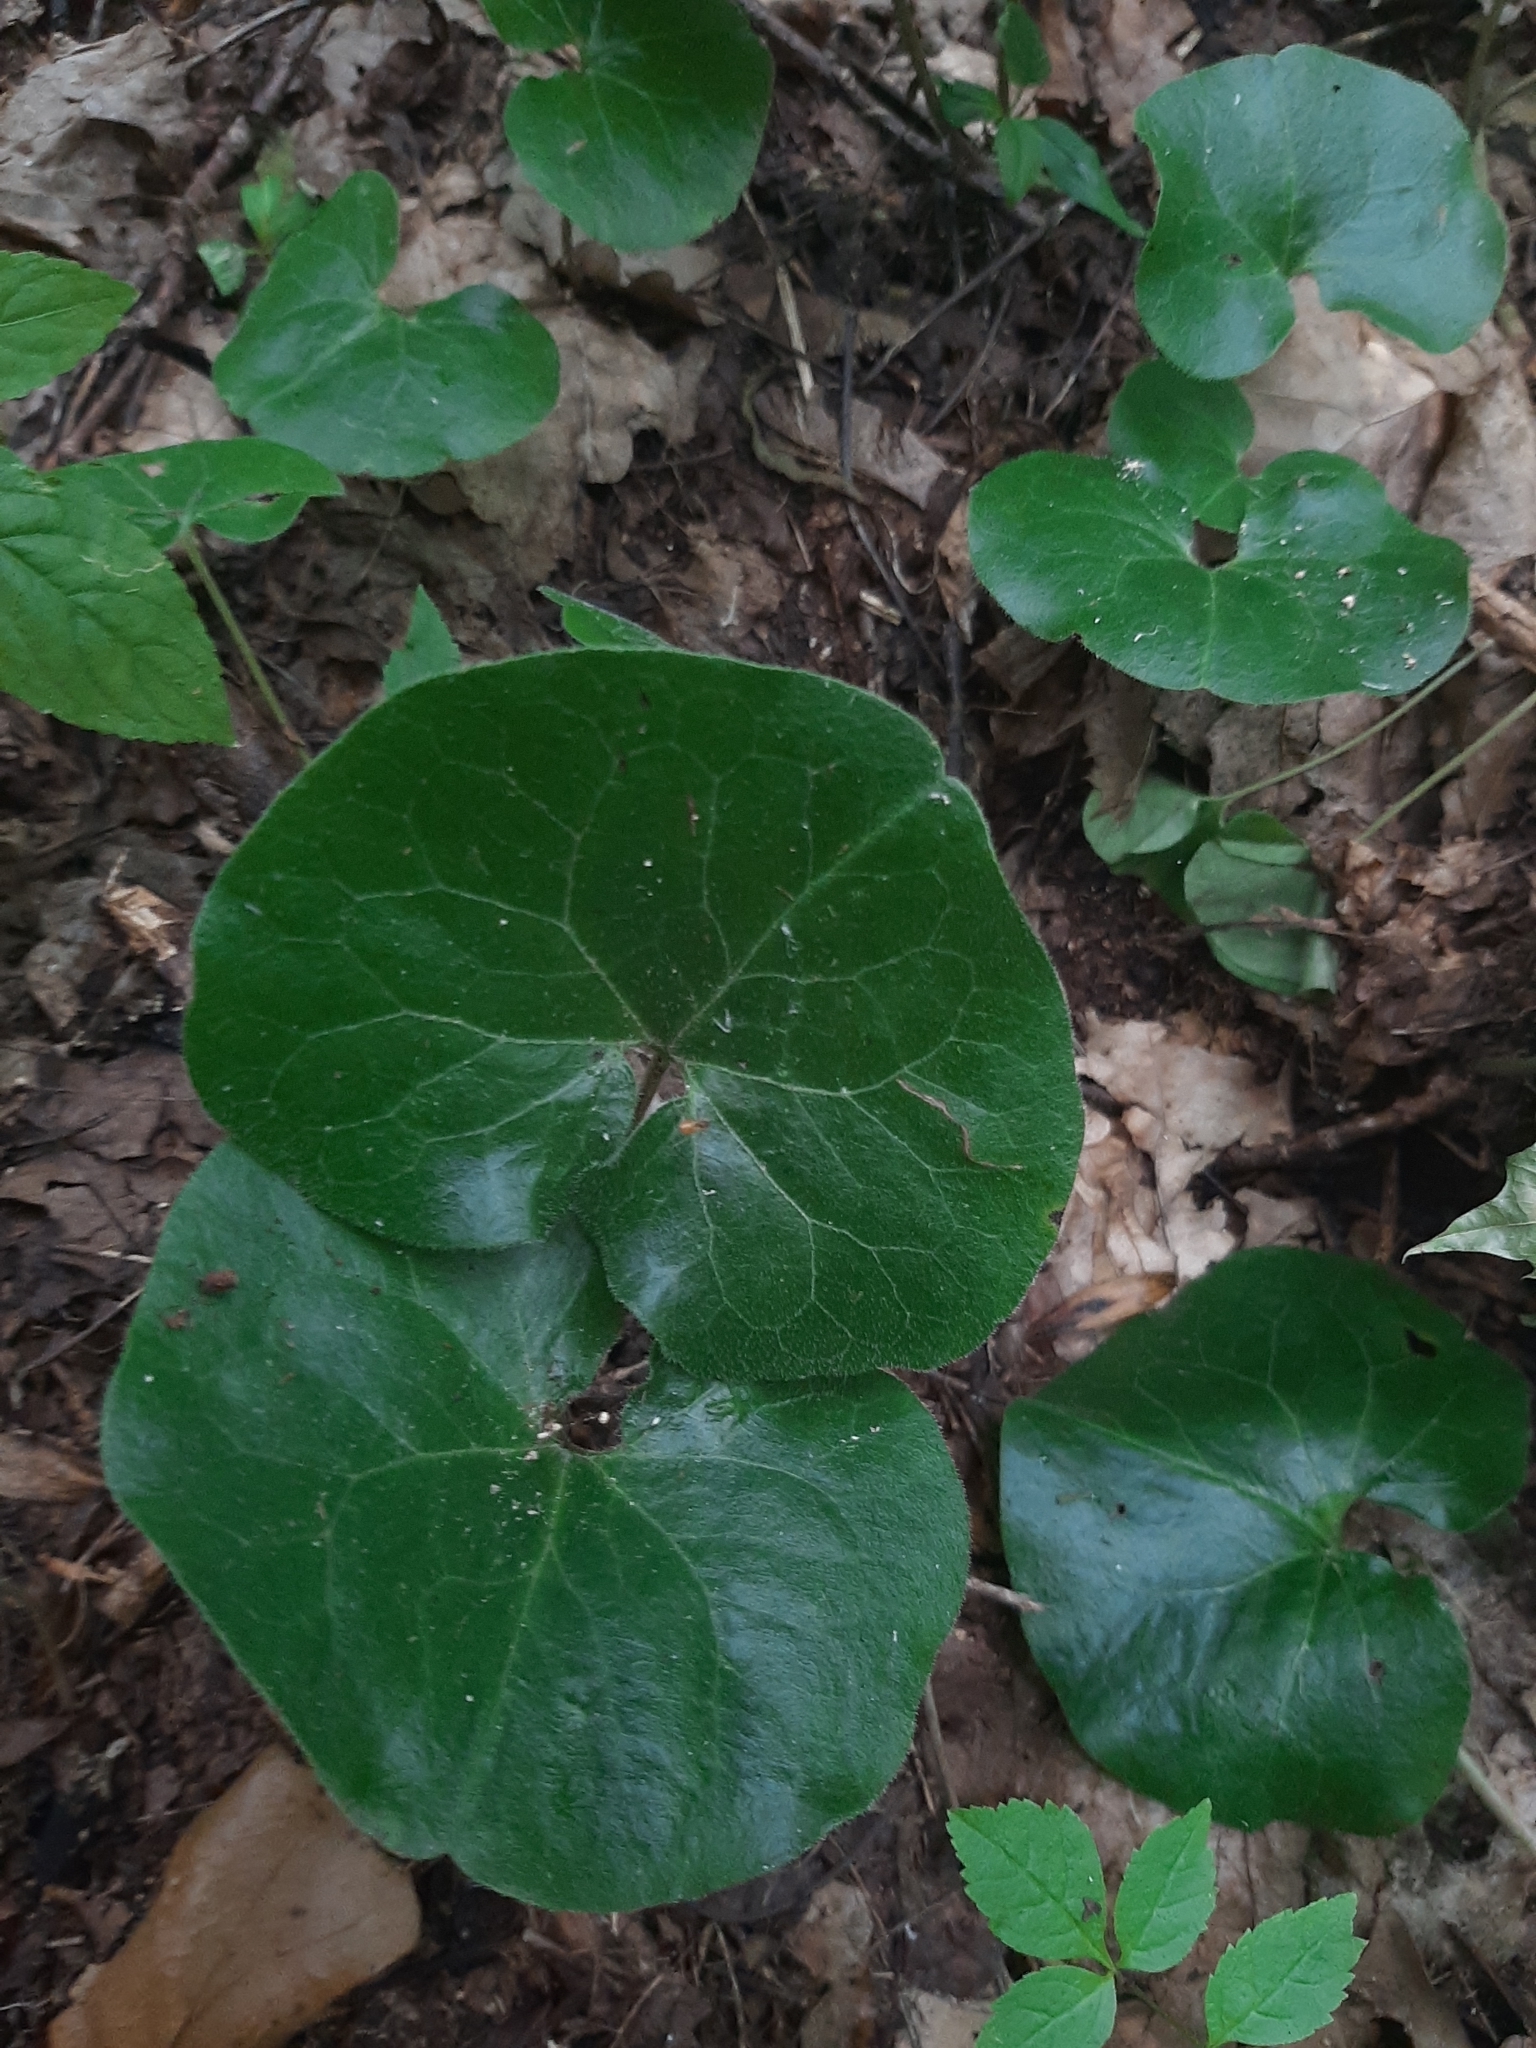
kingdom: Plantae
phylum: Tracheophyta
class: Magnoliopsida
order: Piperales
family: Aristolochiaceae
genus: Asarum
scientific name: Asarum europaeum
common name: Asarabacca
